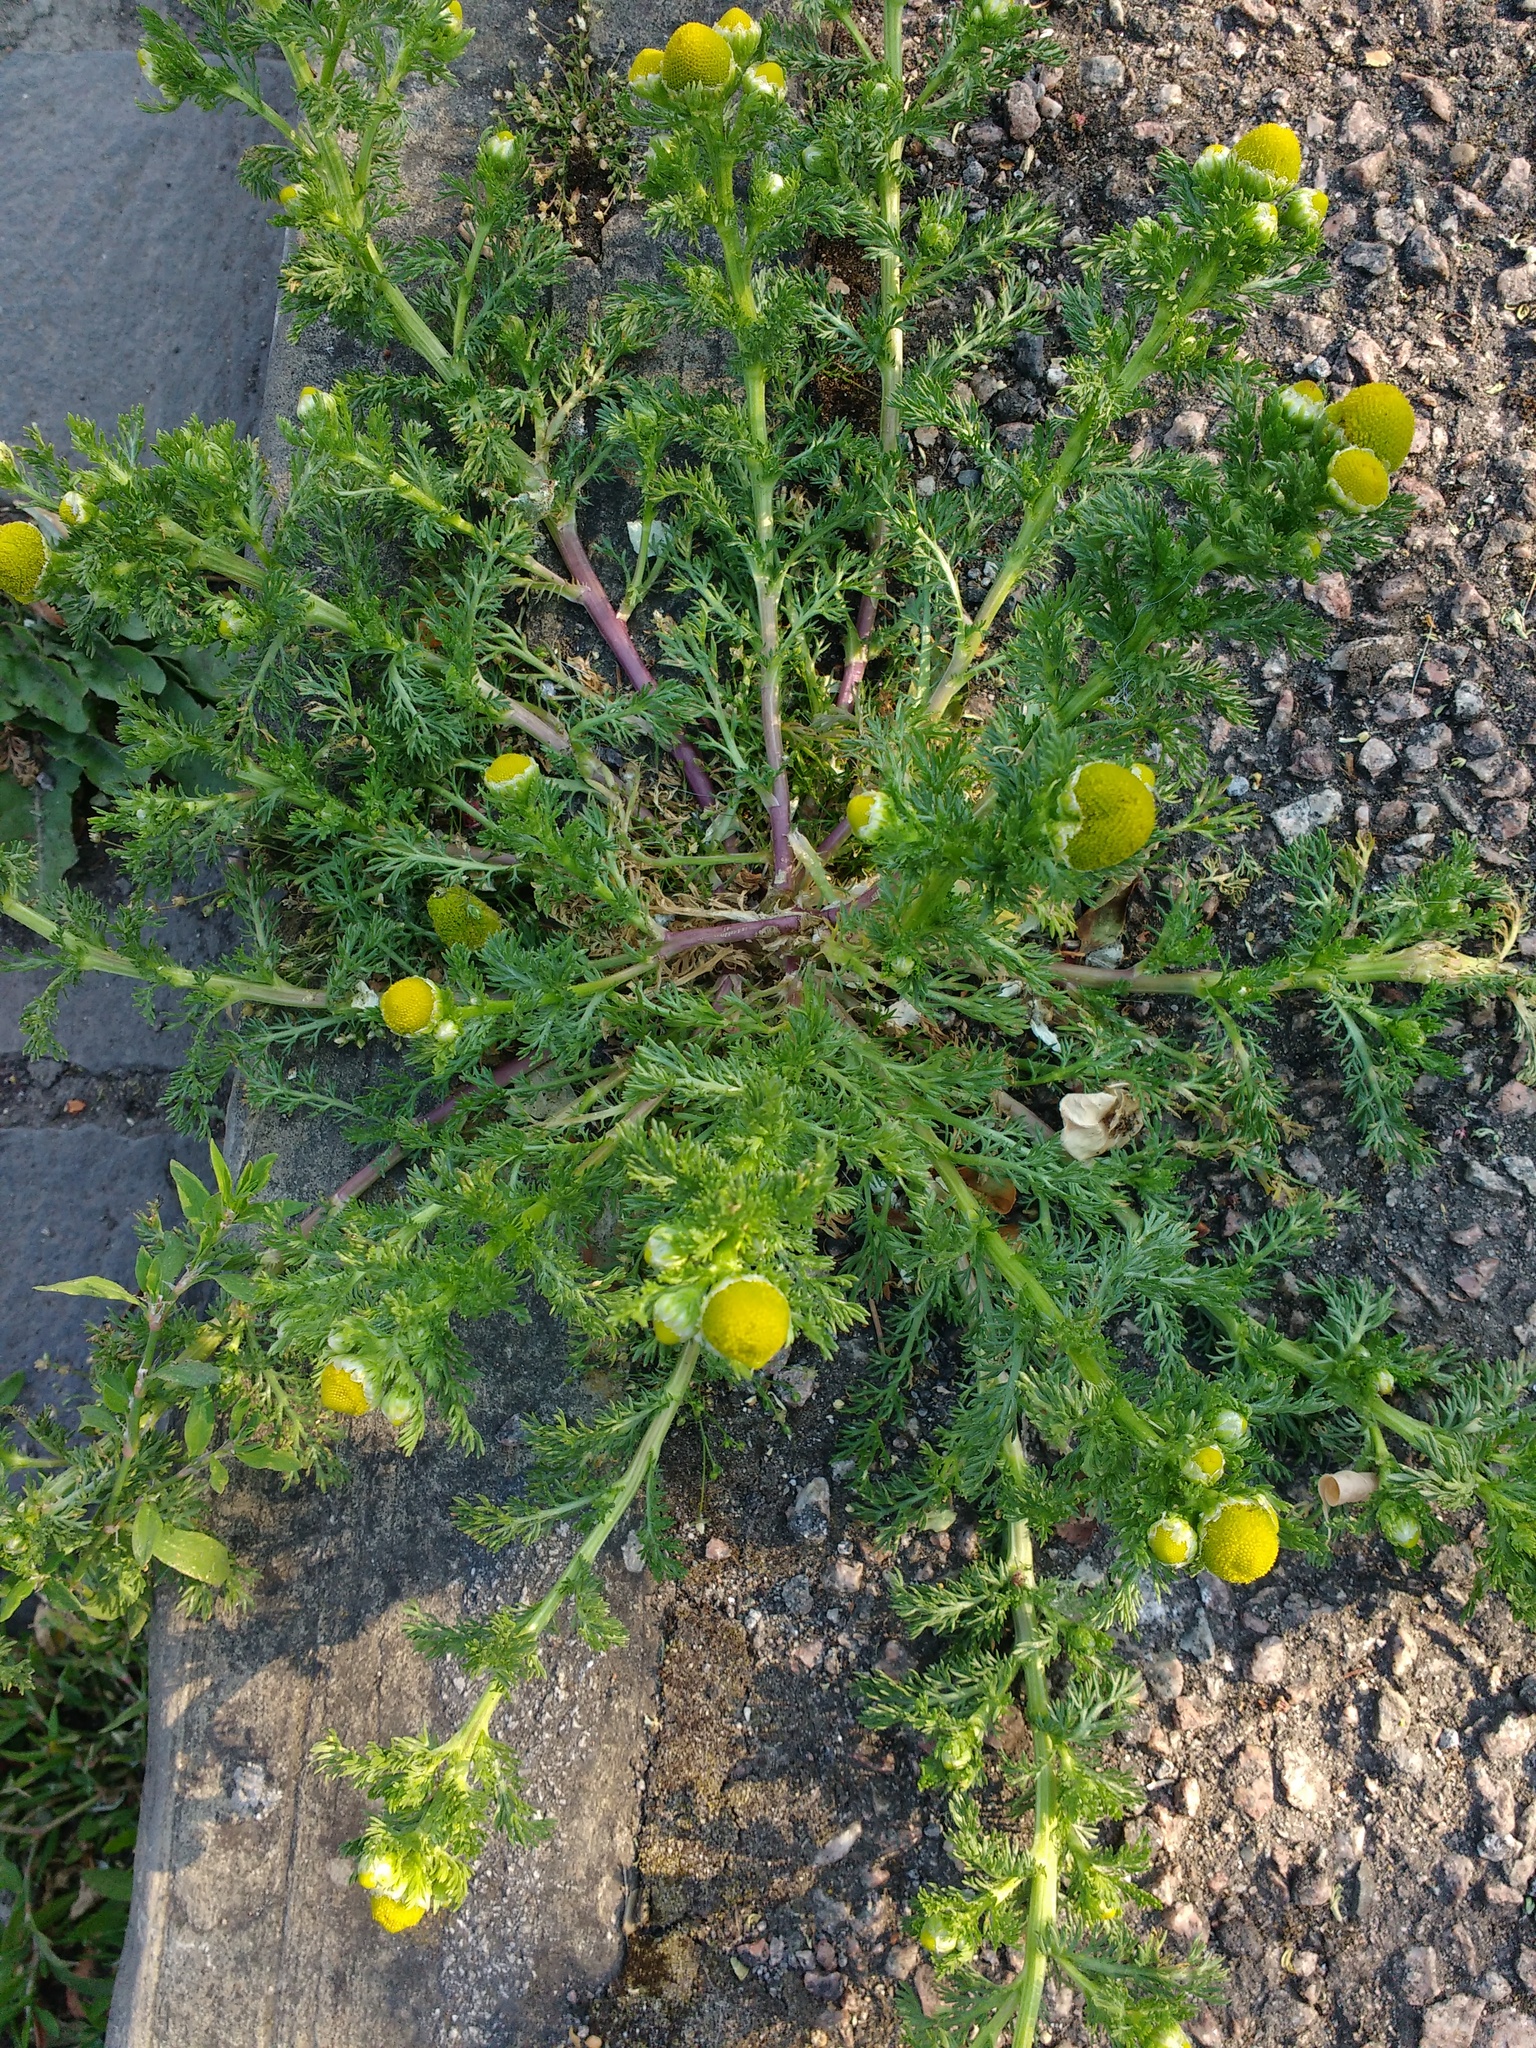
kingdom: Plantae
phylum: Tracheophyta
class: Magnoliopsida
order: Asterales
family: Asteraceae
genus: Matricaria
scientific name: Matricaria discoidea
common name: Disc mayweed
